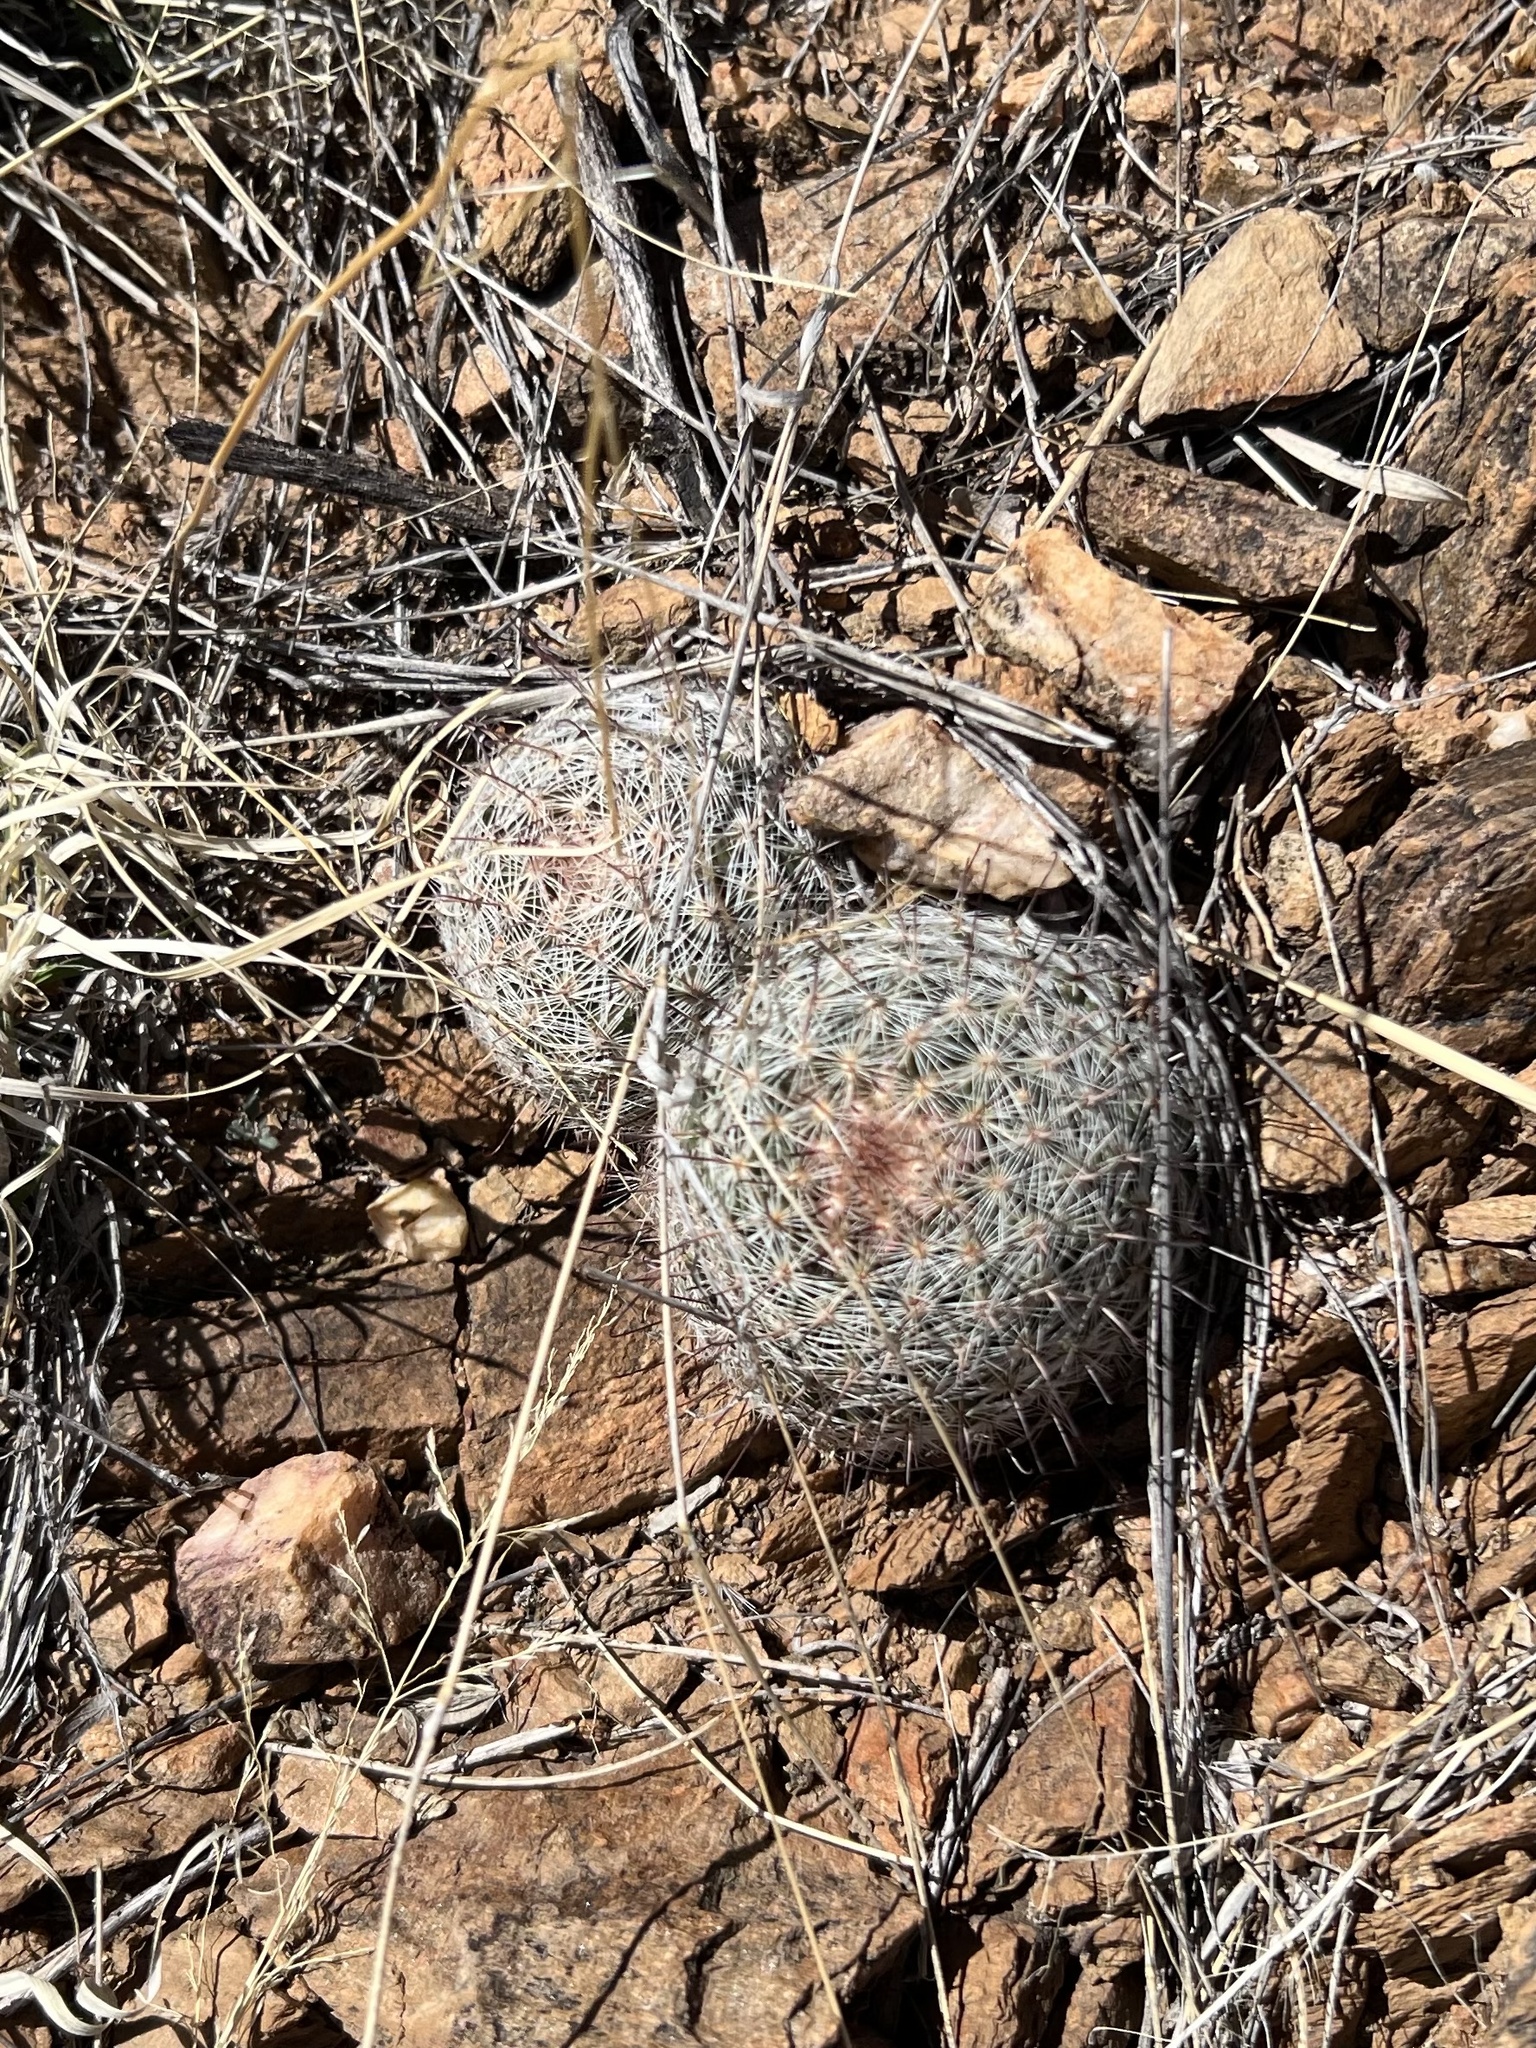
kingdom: Plantae
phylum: Tracheophyta
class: Magnoliopsida
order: Caryophyllales
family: Cactaceae
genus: Cochemiea
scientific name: Cochemiea grahamii
